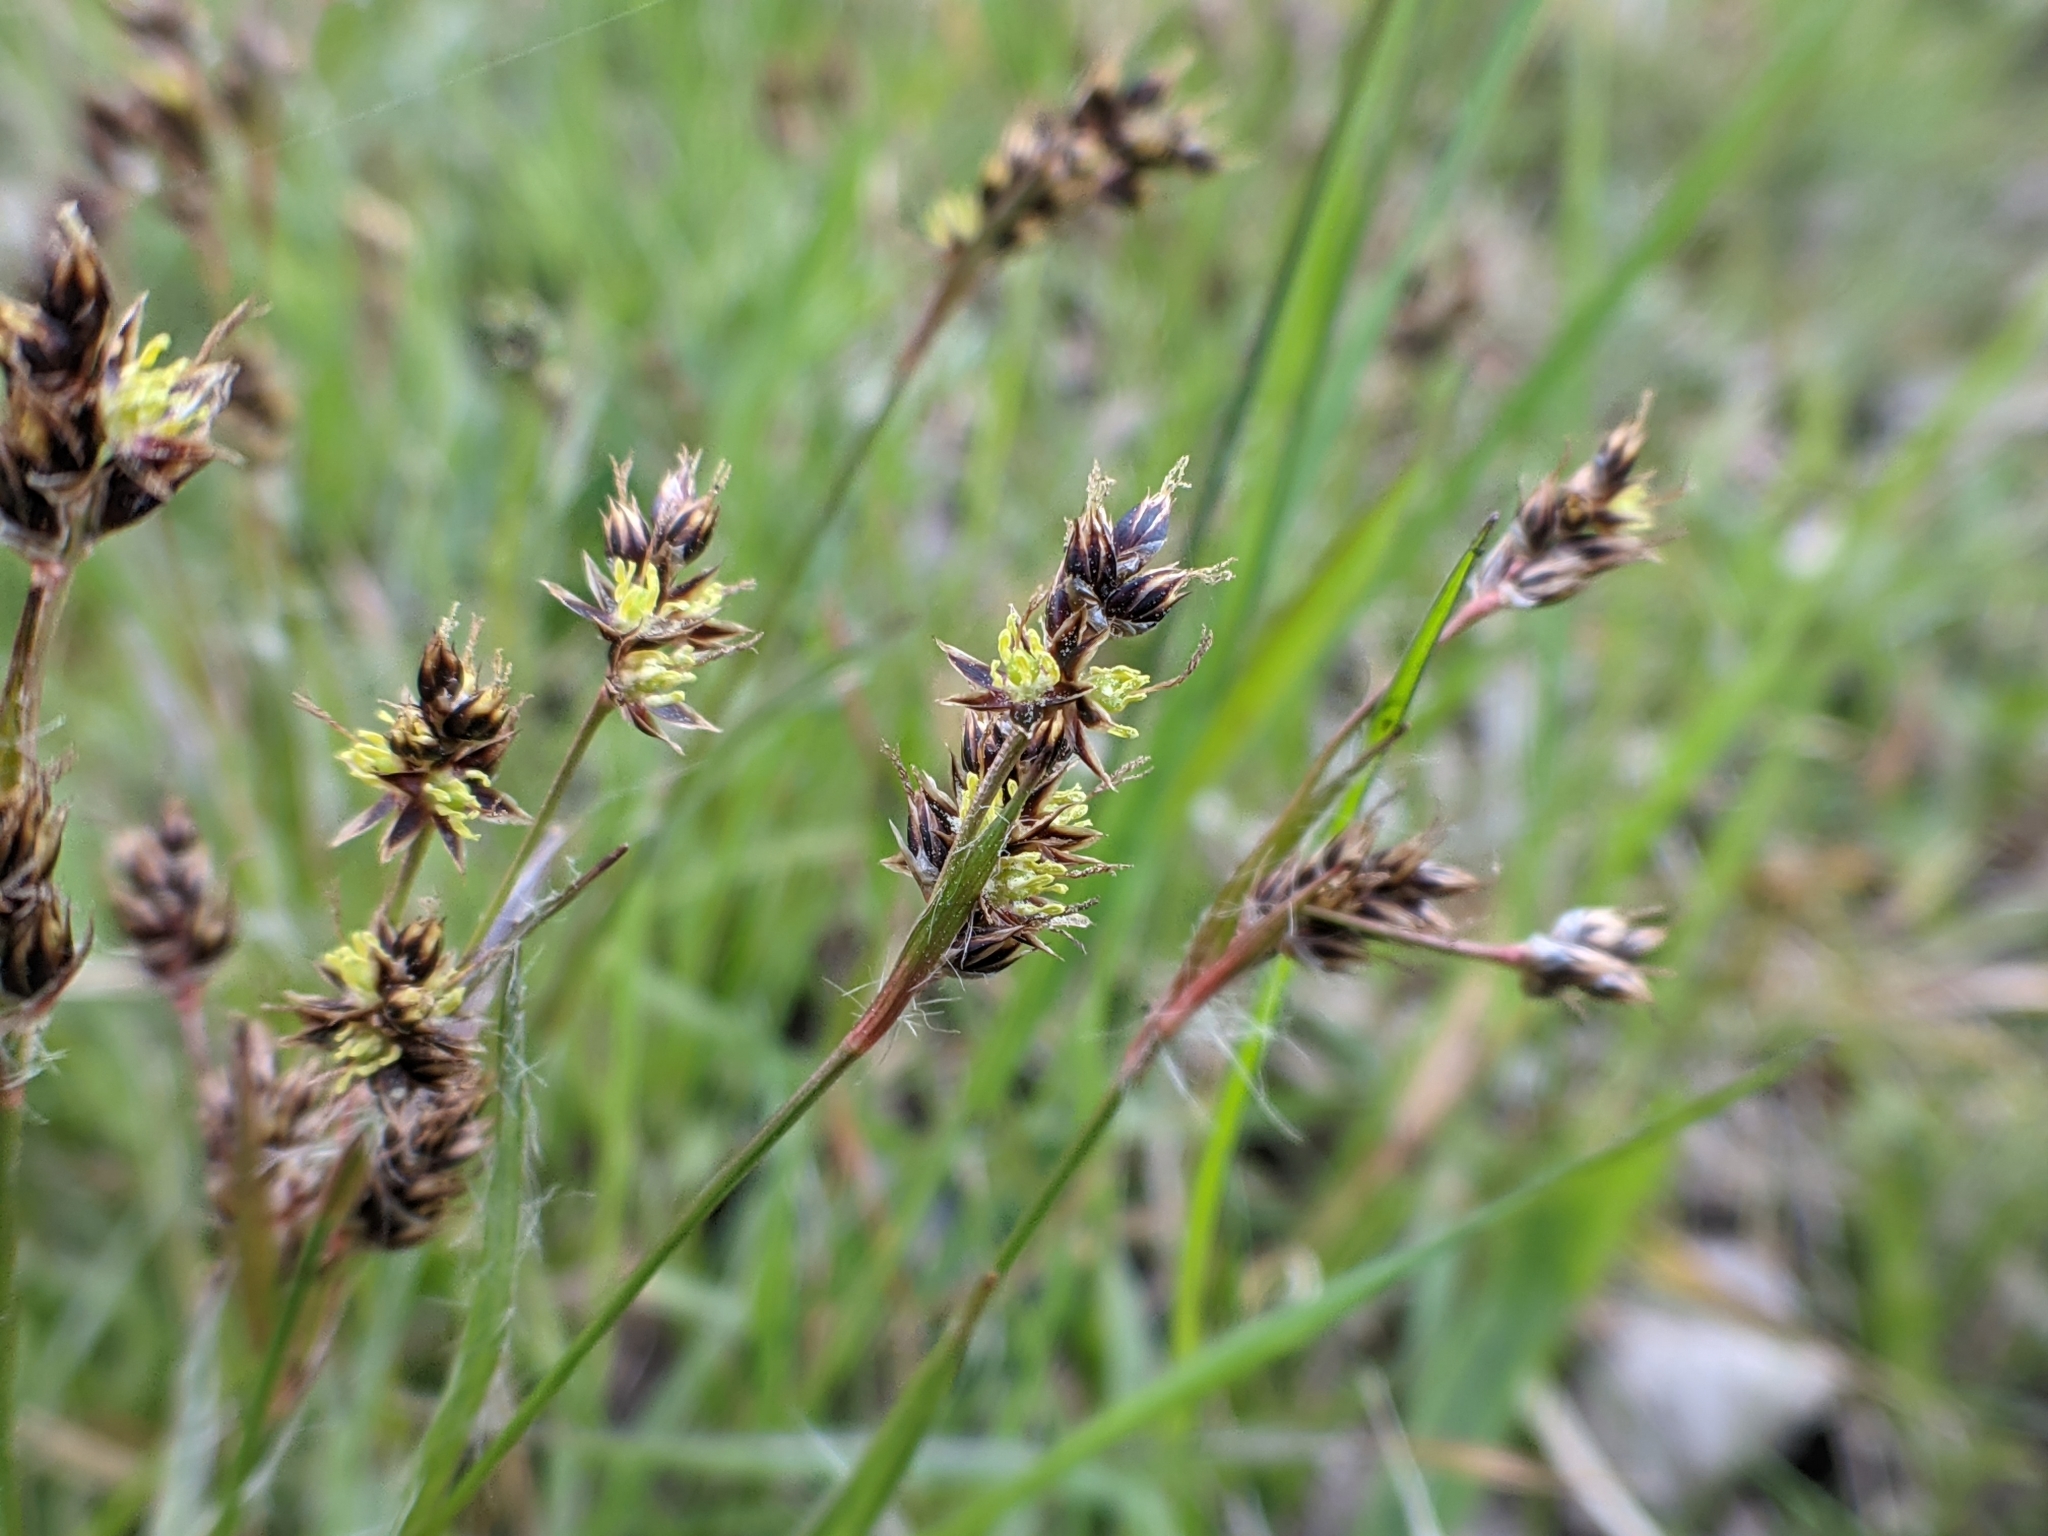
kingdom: Plantae
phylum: Tracheophyta
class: Liliopsida
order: Poales
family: Juncaceae
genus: Luzula
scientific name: Luzula campestris
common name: Field wood-rush
